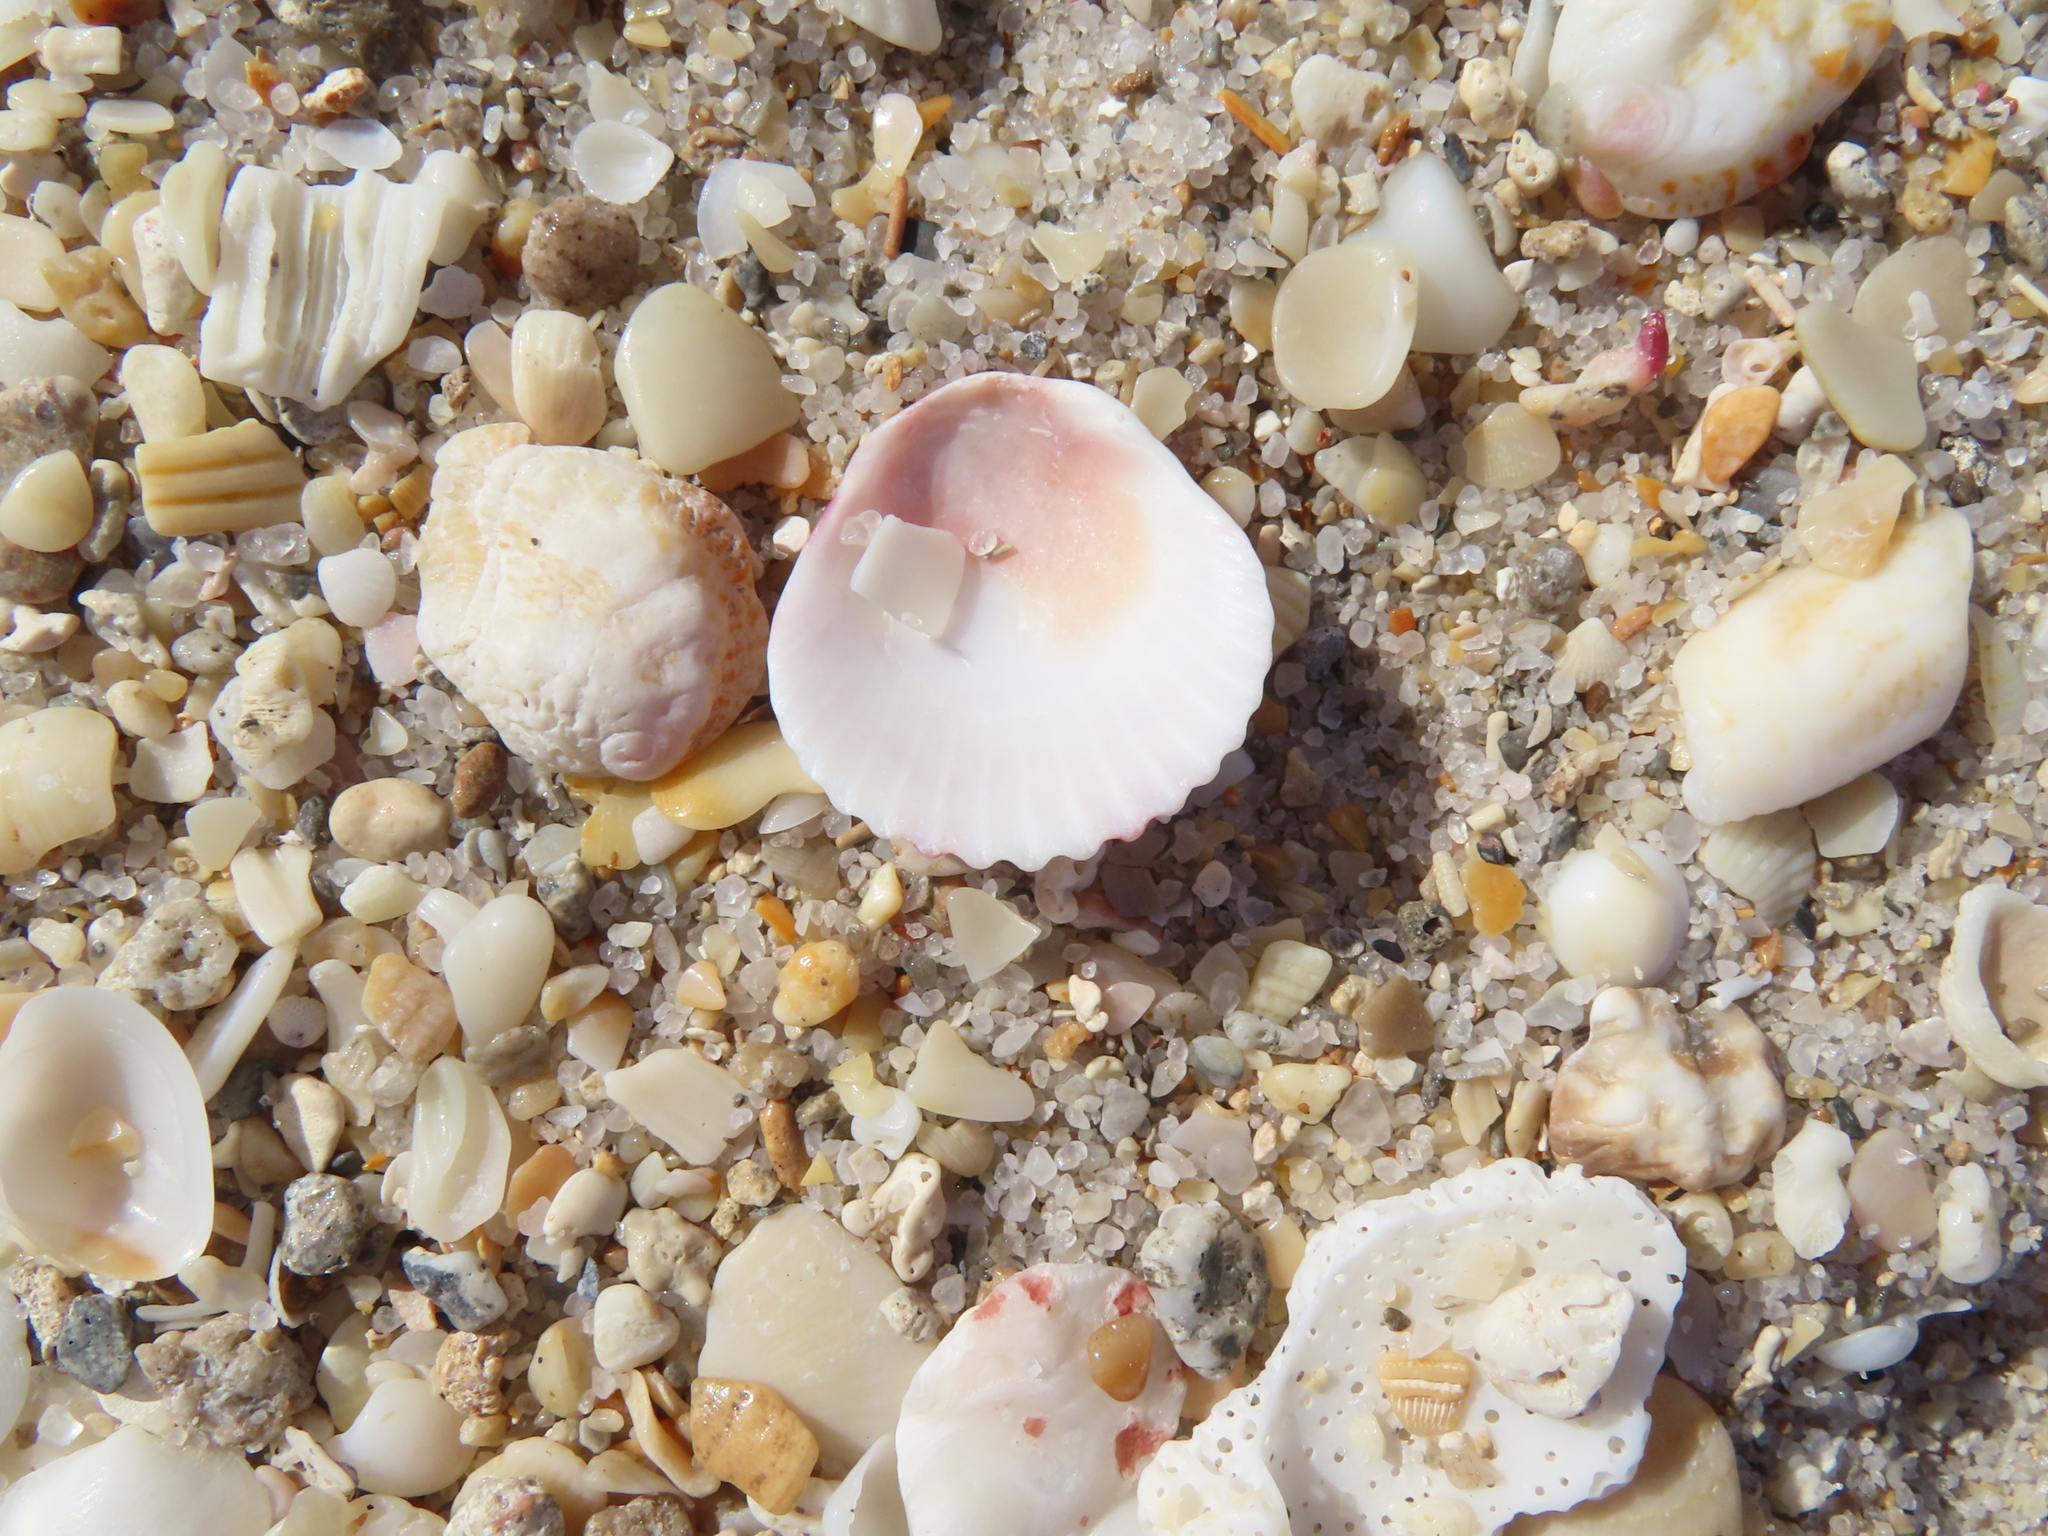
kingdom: Animalia
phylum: Mollusca
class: Bivalvia
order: Pectinida
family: Pectinidae
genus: Argopecten
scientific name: Argopecten gibbus
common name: Atlantic calico scallop
